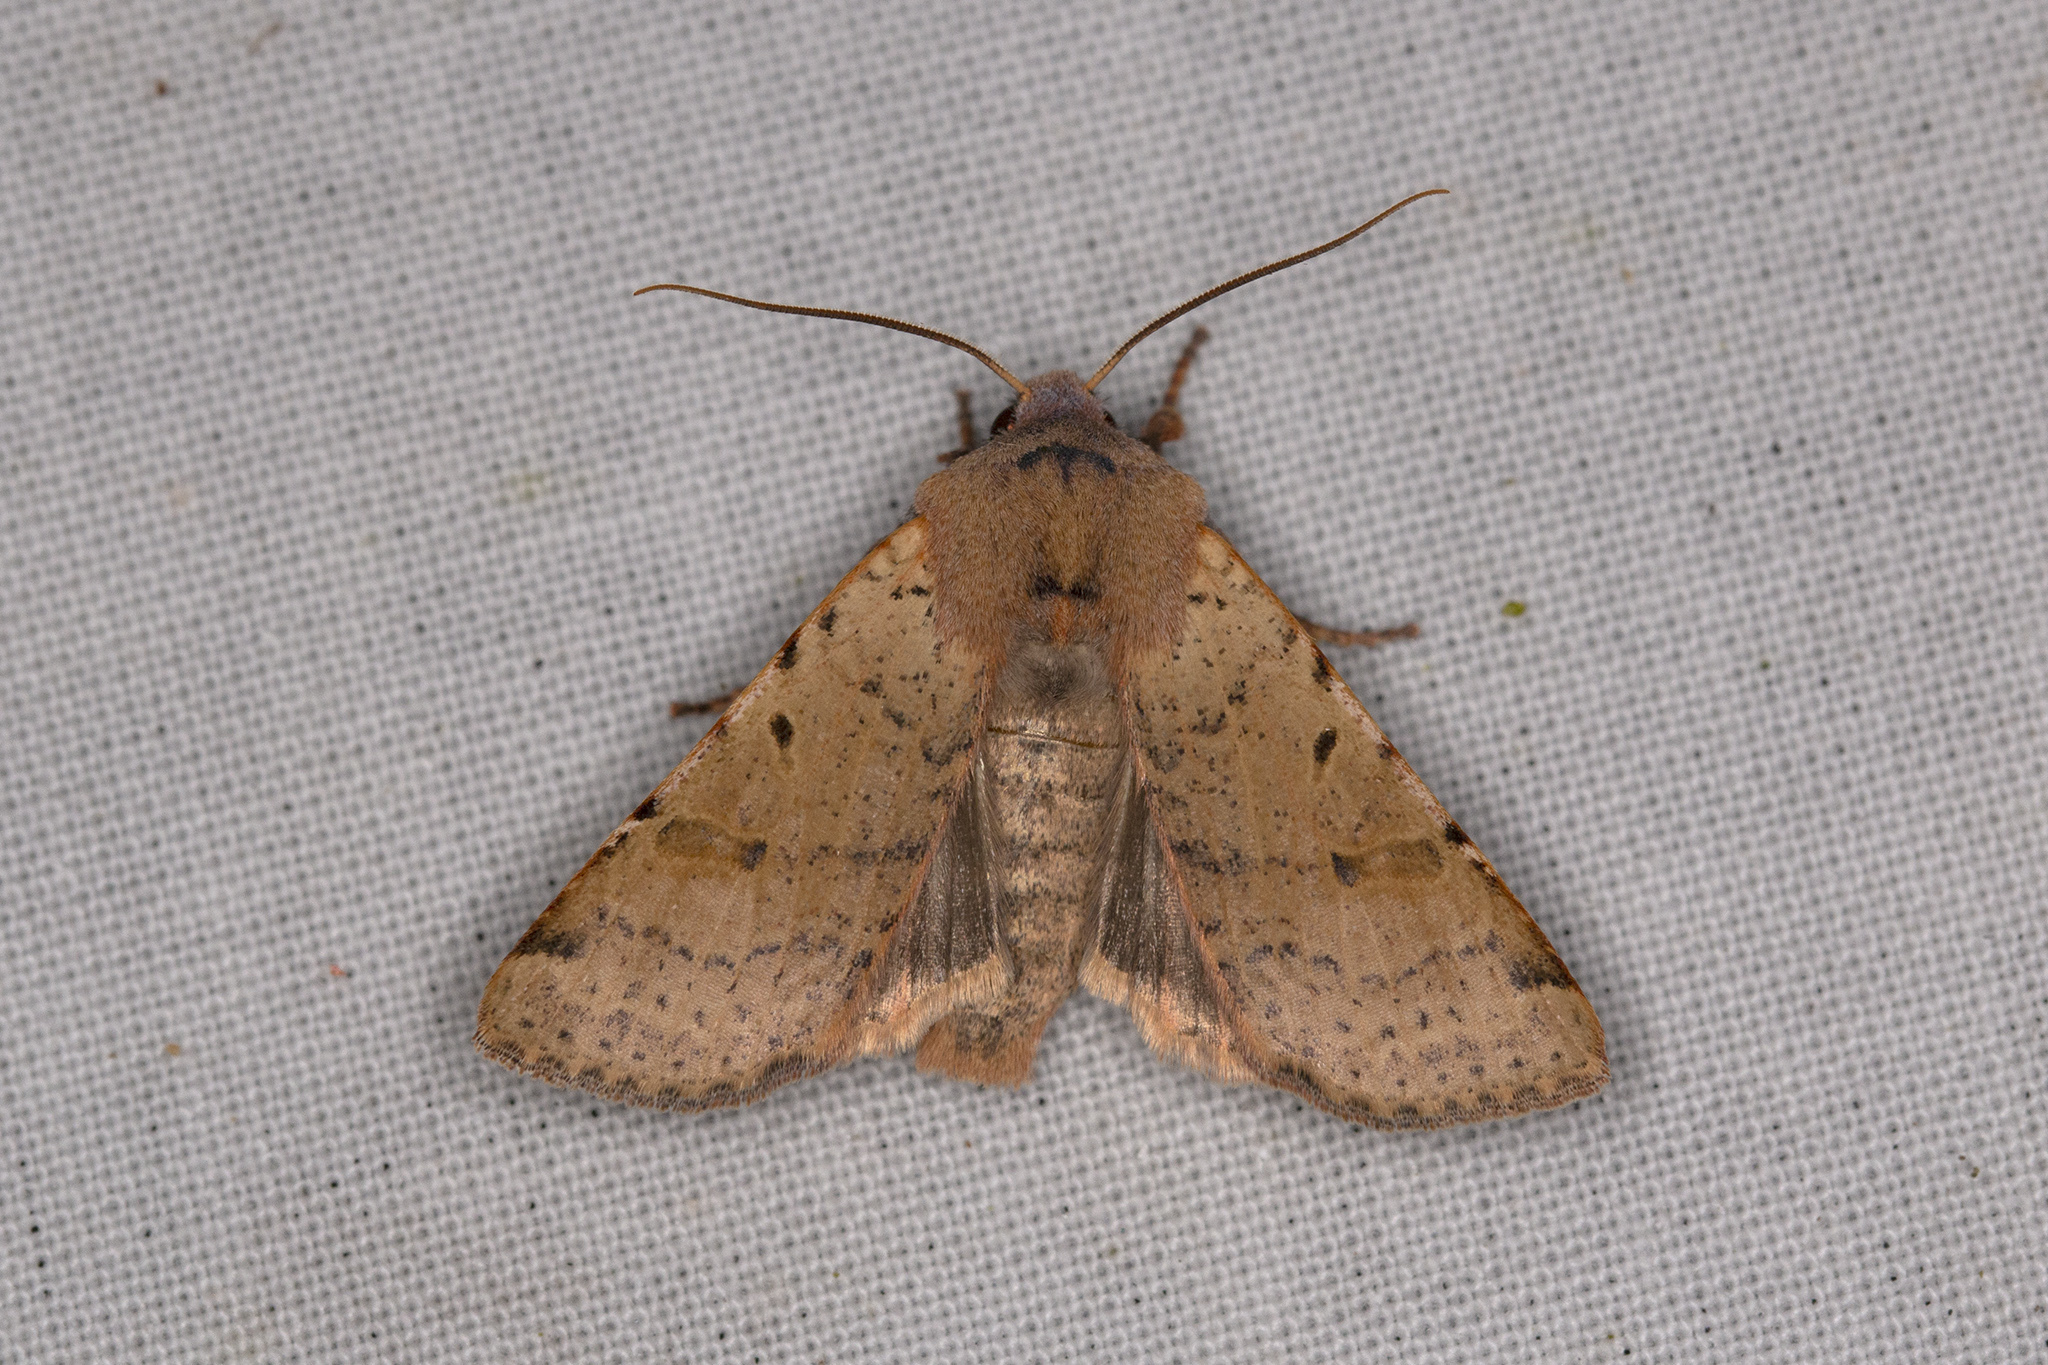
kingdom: Animalia
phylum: Arthropoda
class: Insecta
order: Lepidoptera
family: Noctuidae
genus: Agrochola
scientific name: Agrochola lychnidis
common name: Beaded chestnut
